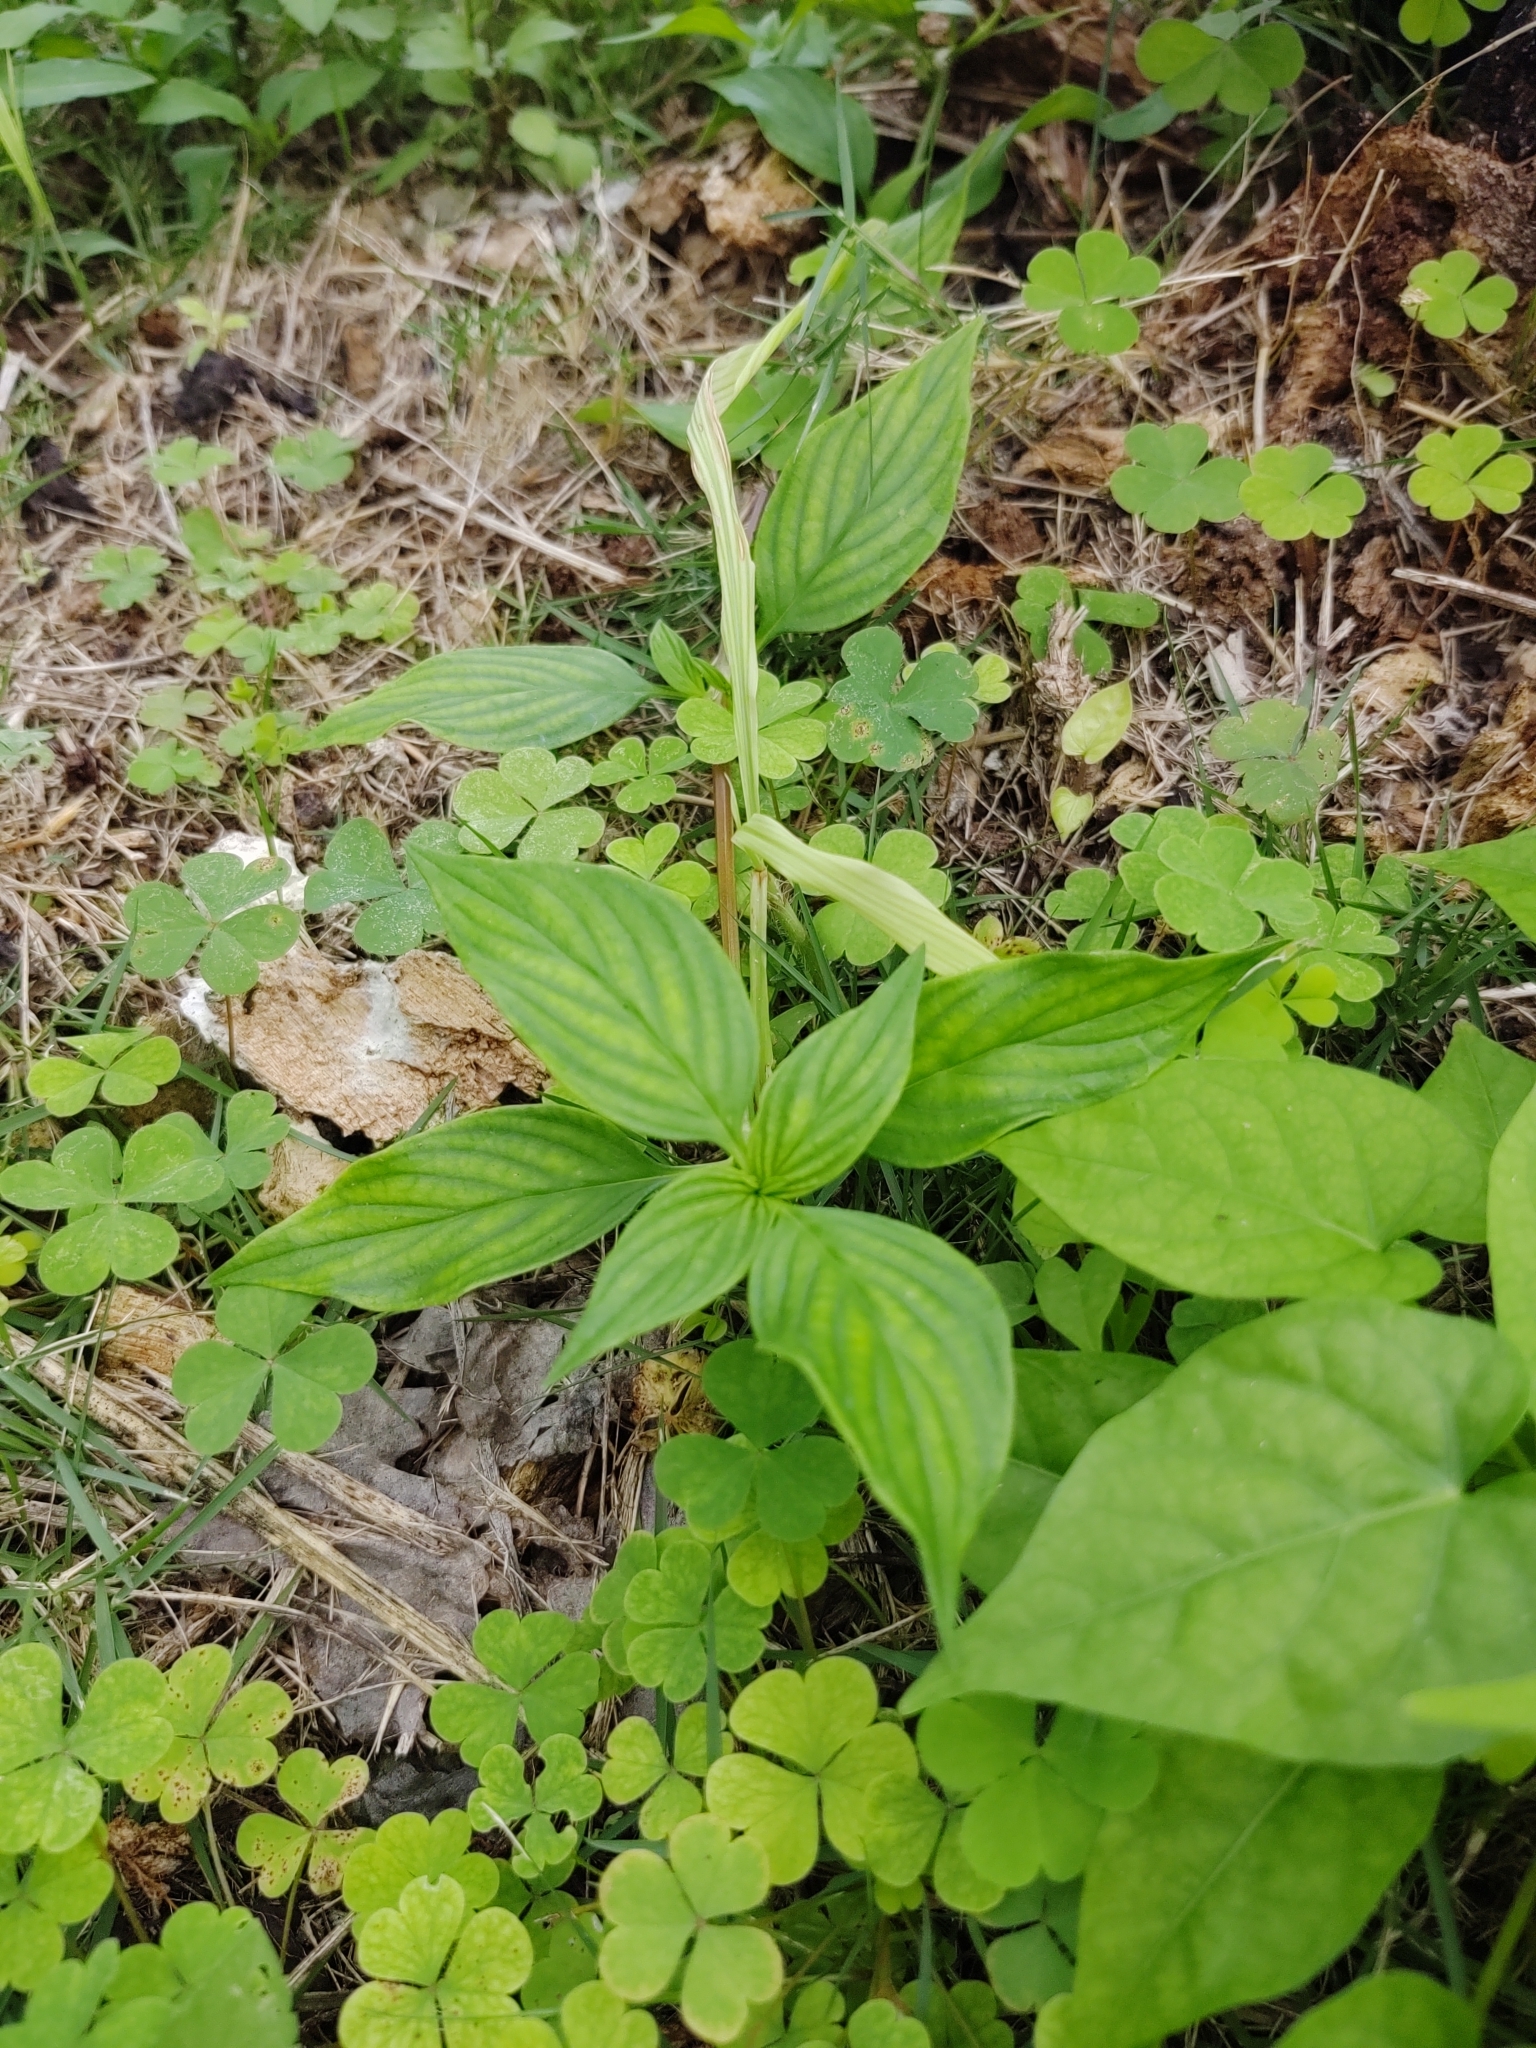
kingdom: Plantae
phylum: Tracheophyta
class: Magnoliopsida
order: Gentianales
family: Loganiaceae
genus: Spigelia
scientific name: Spigelia anthelmia
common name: West indian-pink
